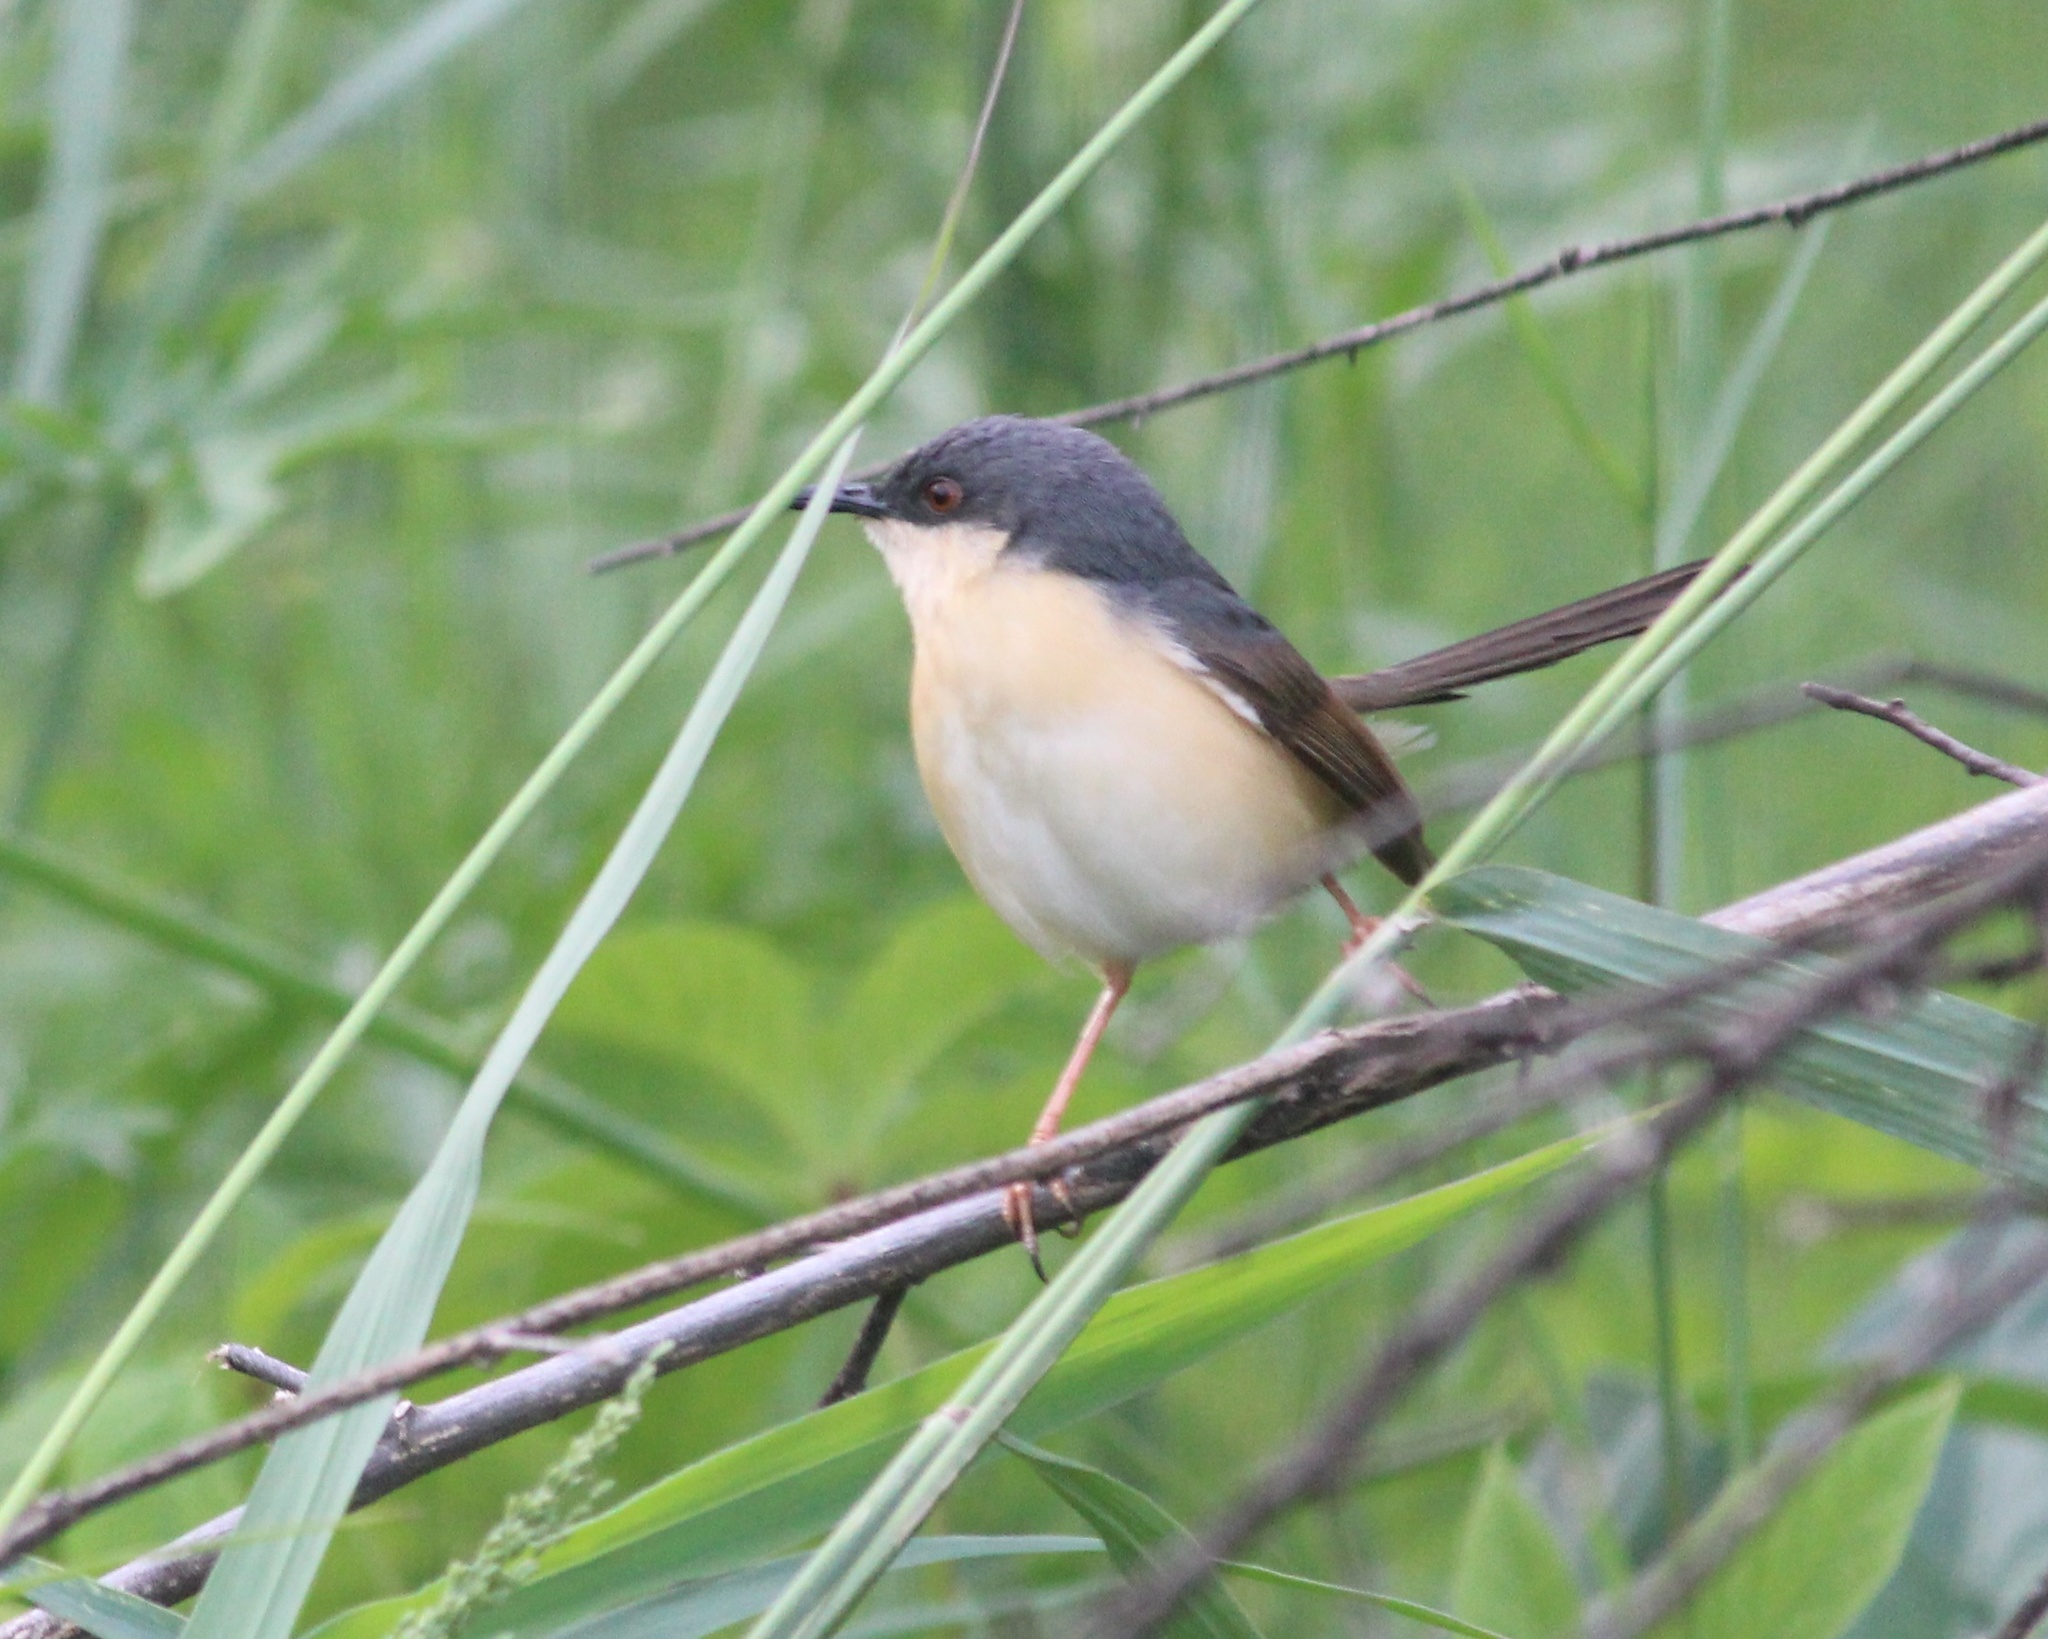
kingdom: Animalia
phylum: Chordata
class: Aves
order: Passeriformes
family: Cisticolidae
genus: Prinia
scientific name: Prinia socialis
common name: Ashy prinia
